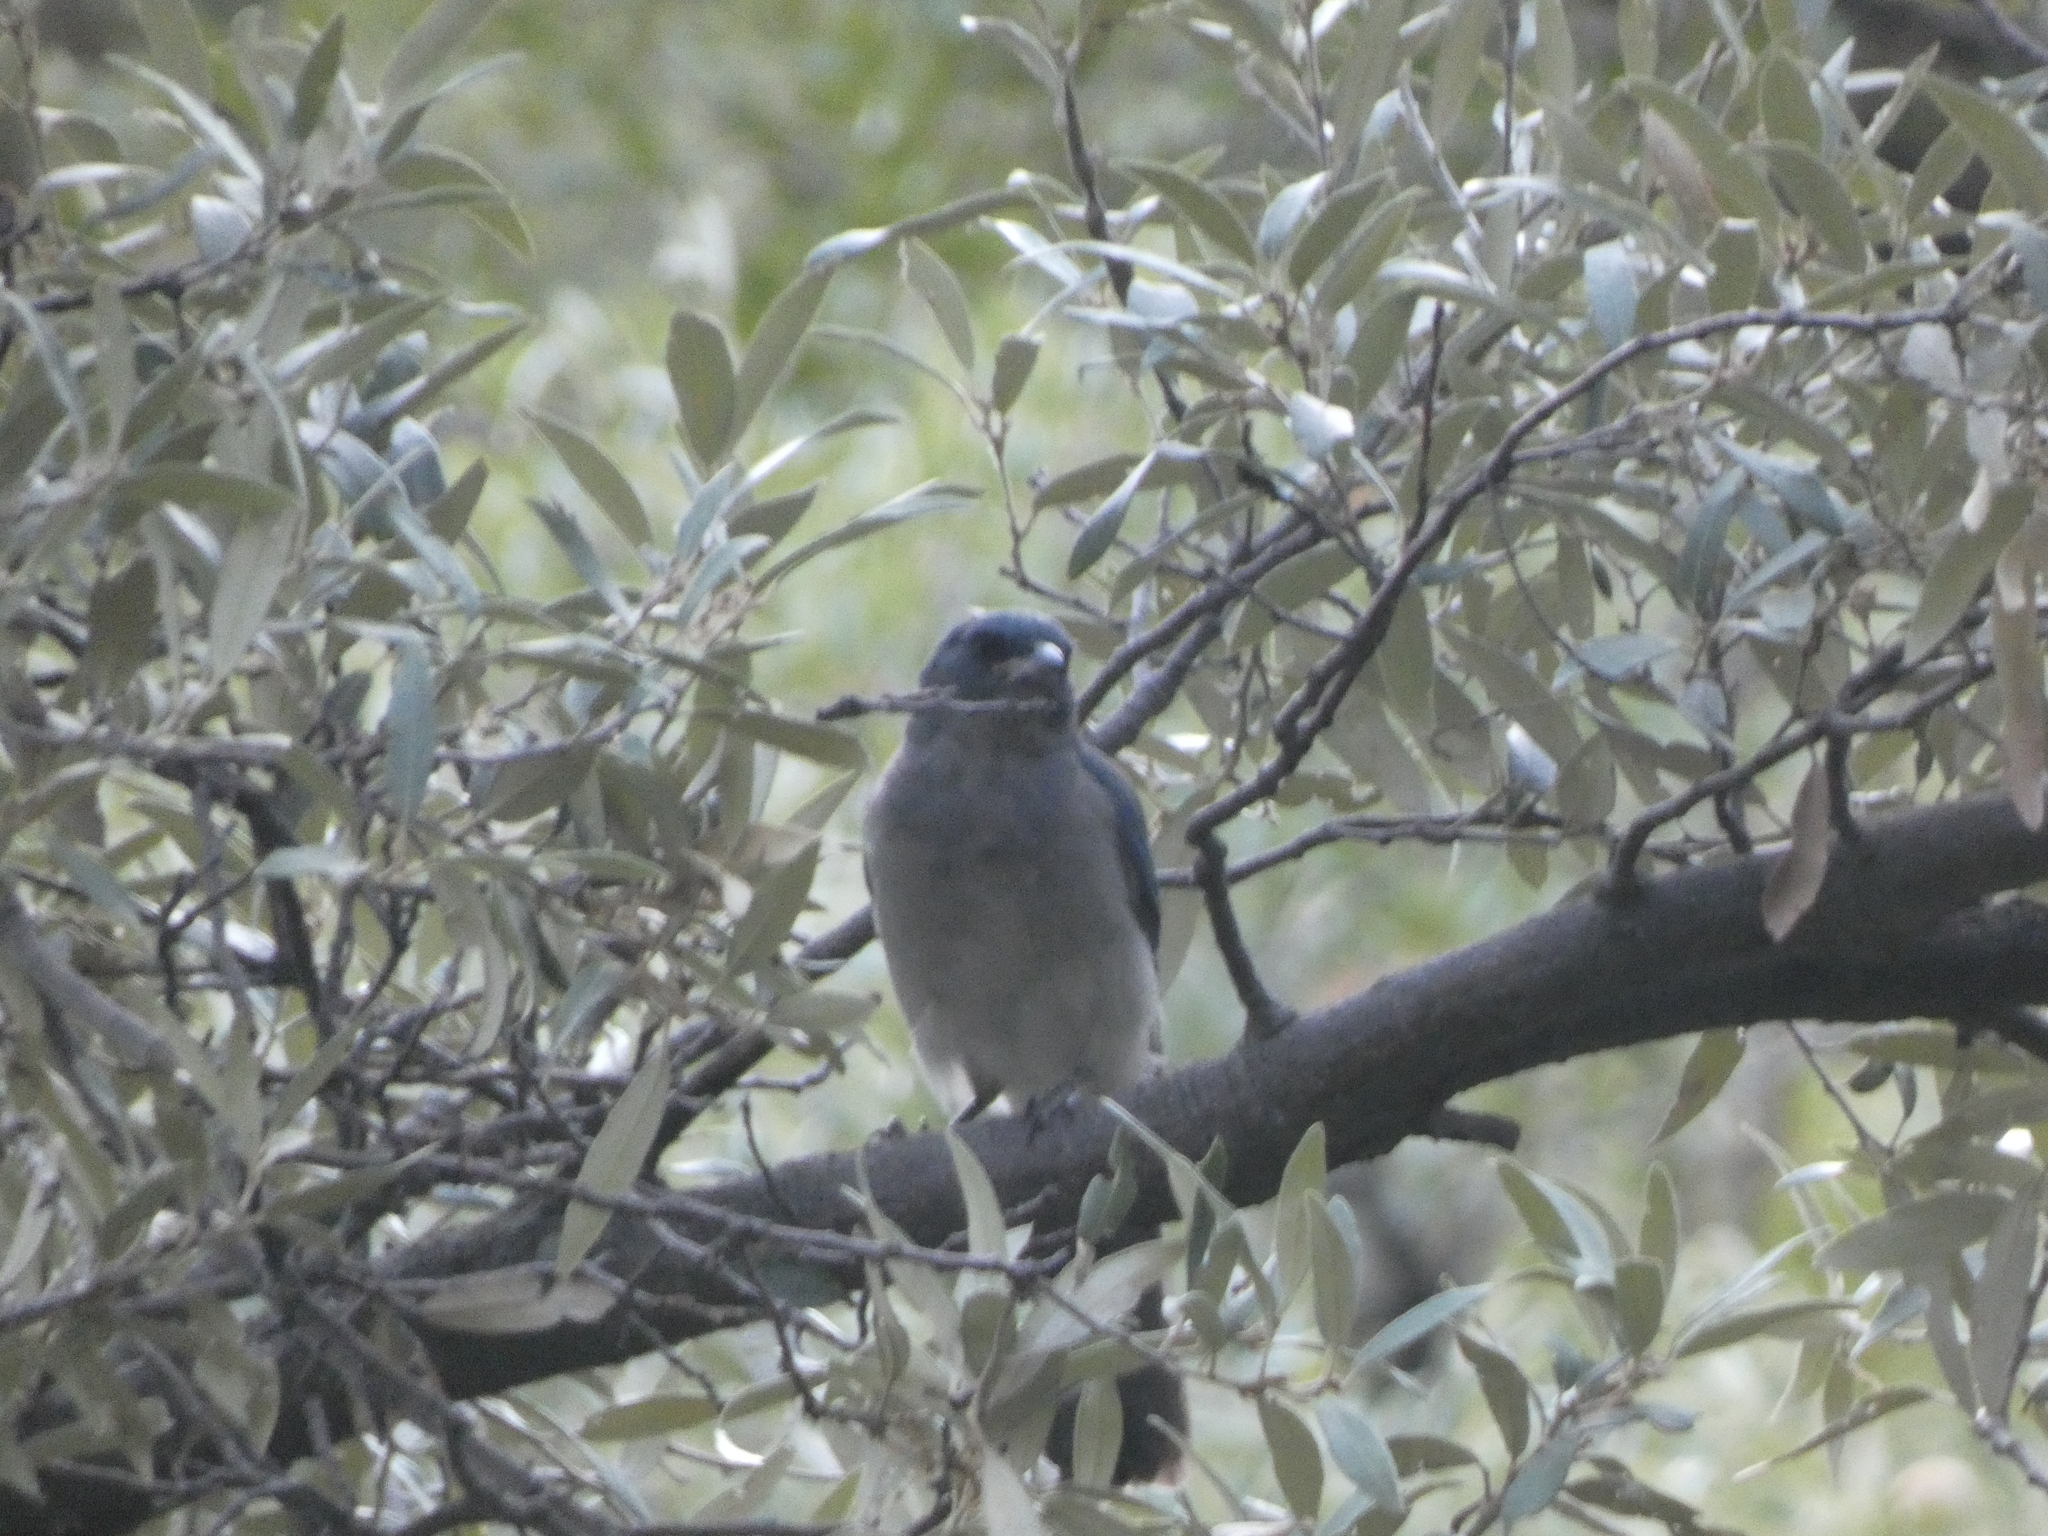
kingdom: Animalia
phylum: Chordata
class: Aves
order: Passeriformes
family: Corvidae
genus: Aphelocoma
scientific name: Aphelocoma wollweberi
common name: Mexican jay
